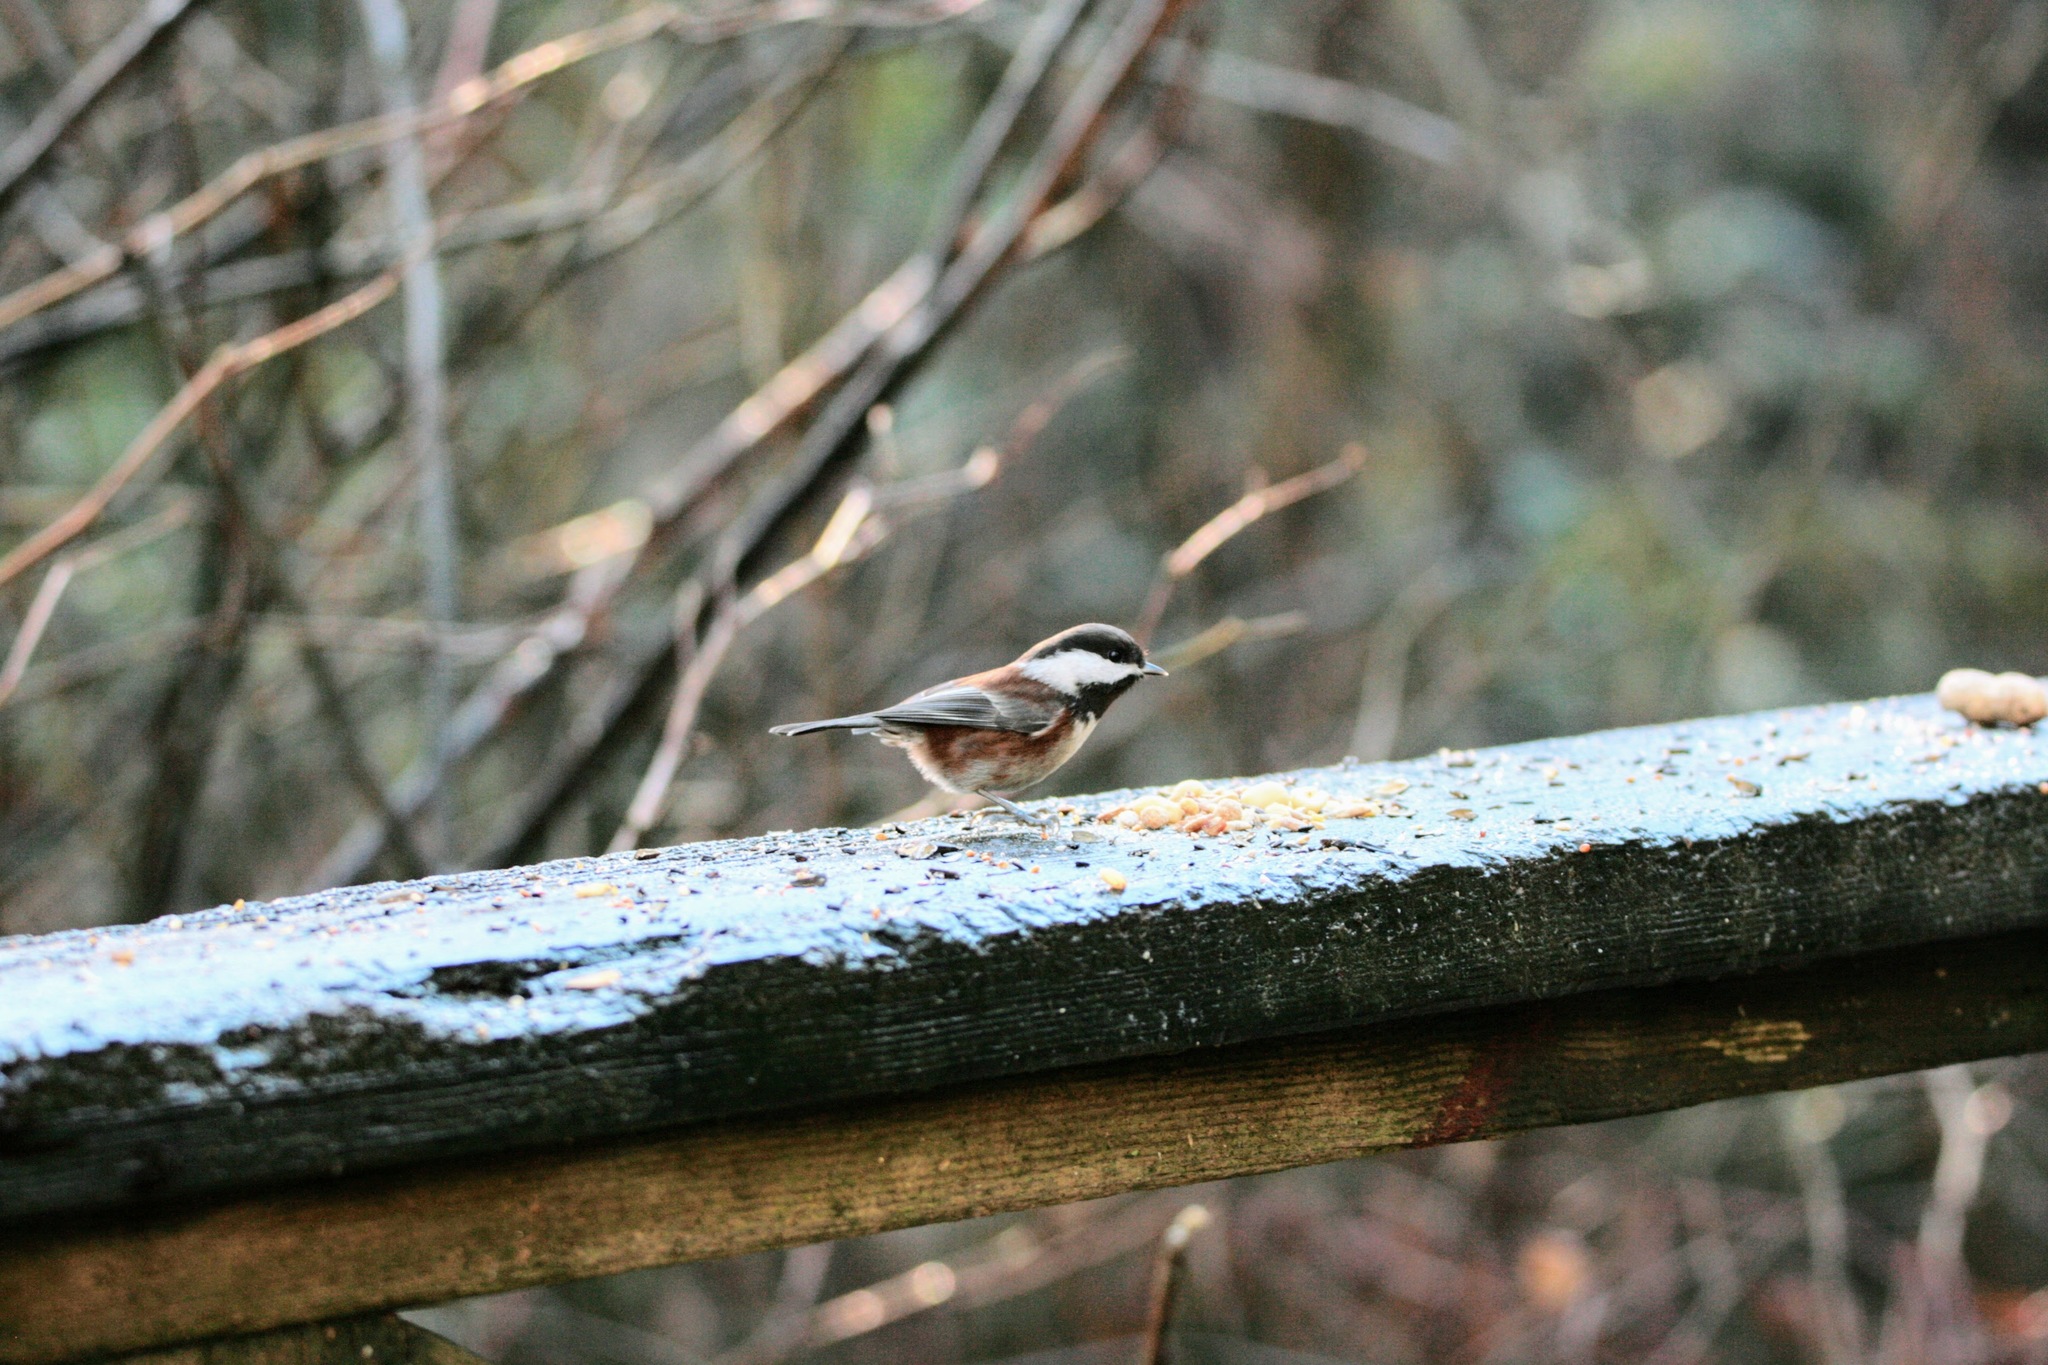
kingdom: Animalia
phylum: Chordata
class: Aves
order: Passeriformes
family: Paridae
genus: Poecile
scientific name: Poecile rufescens
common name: Chestnut-backed chickadee
